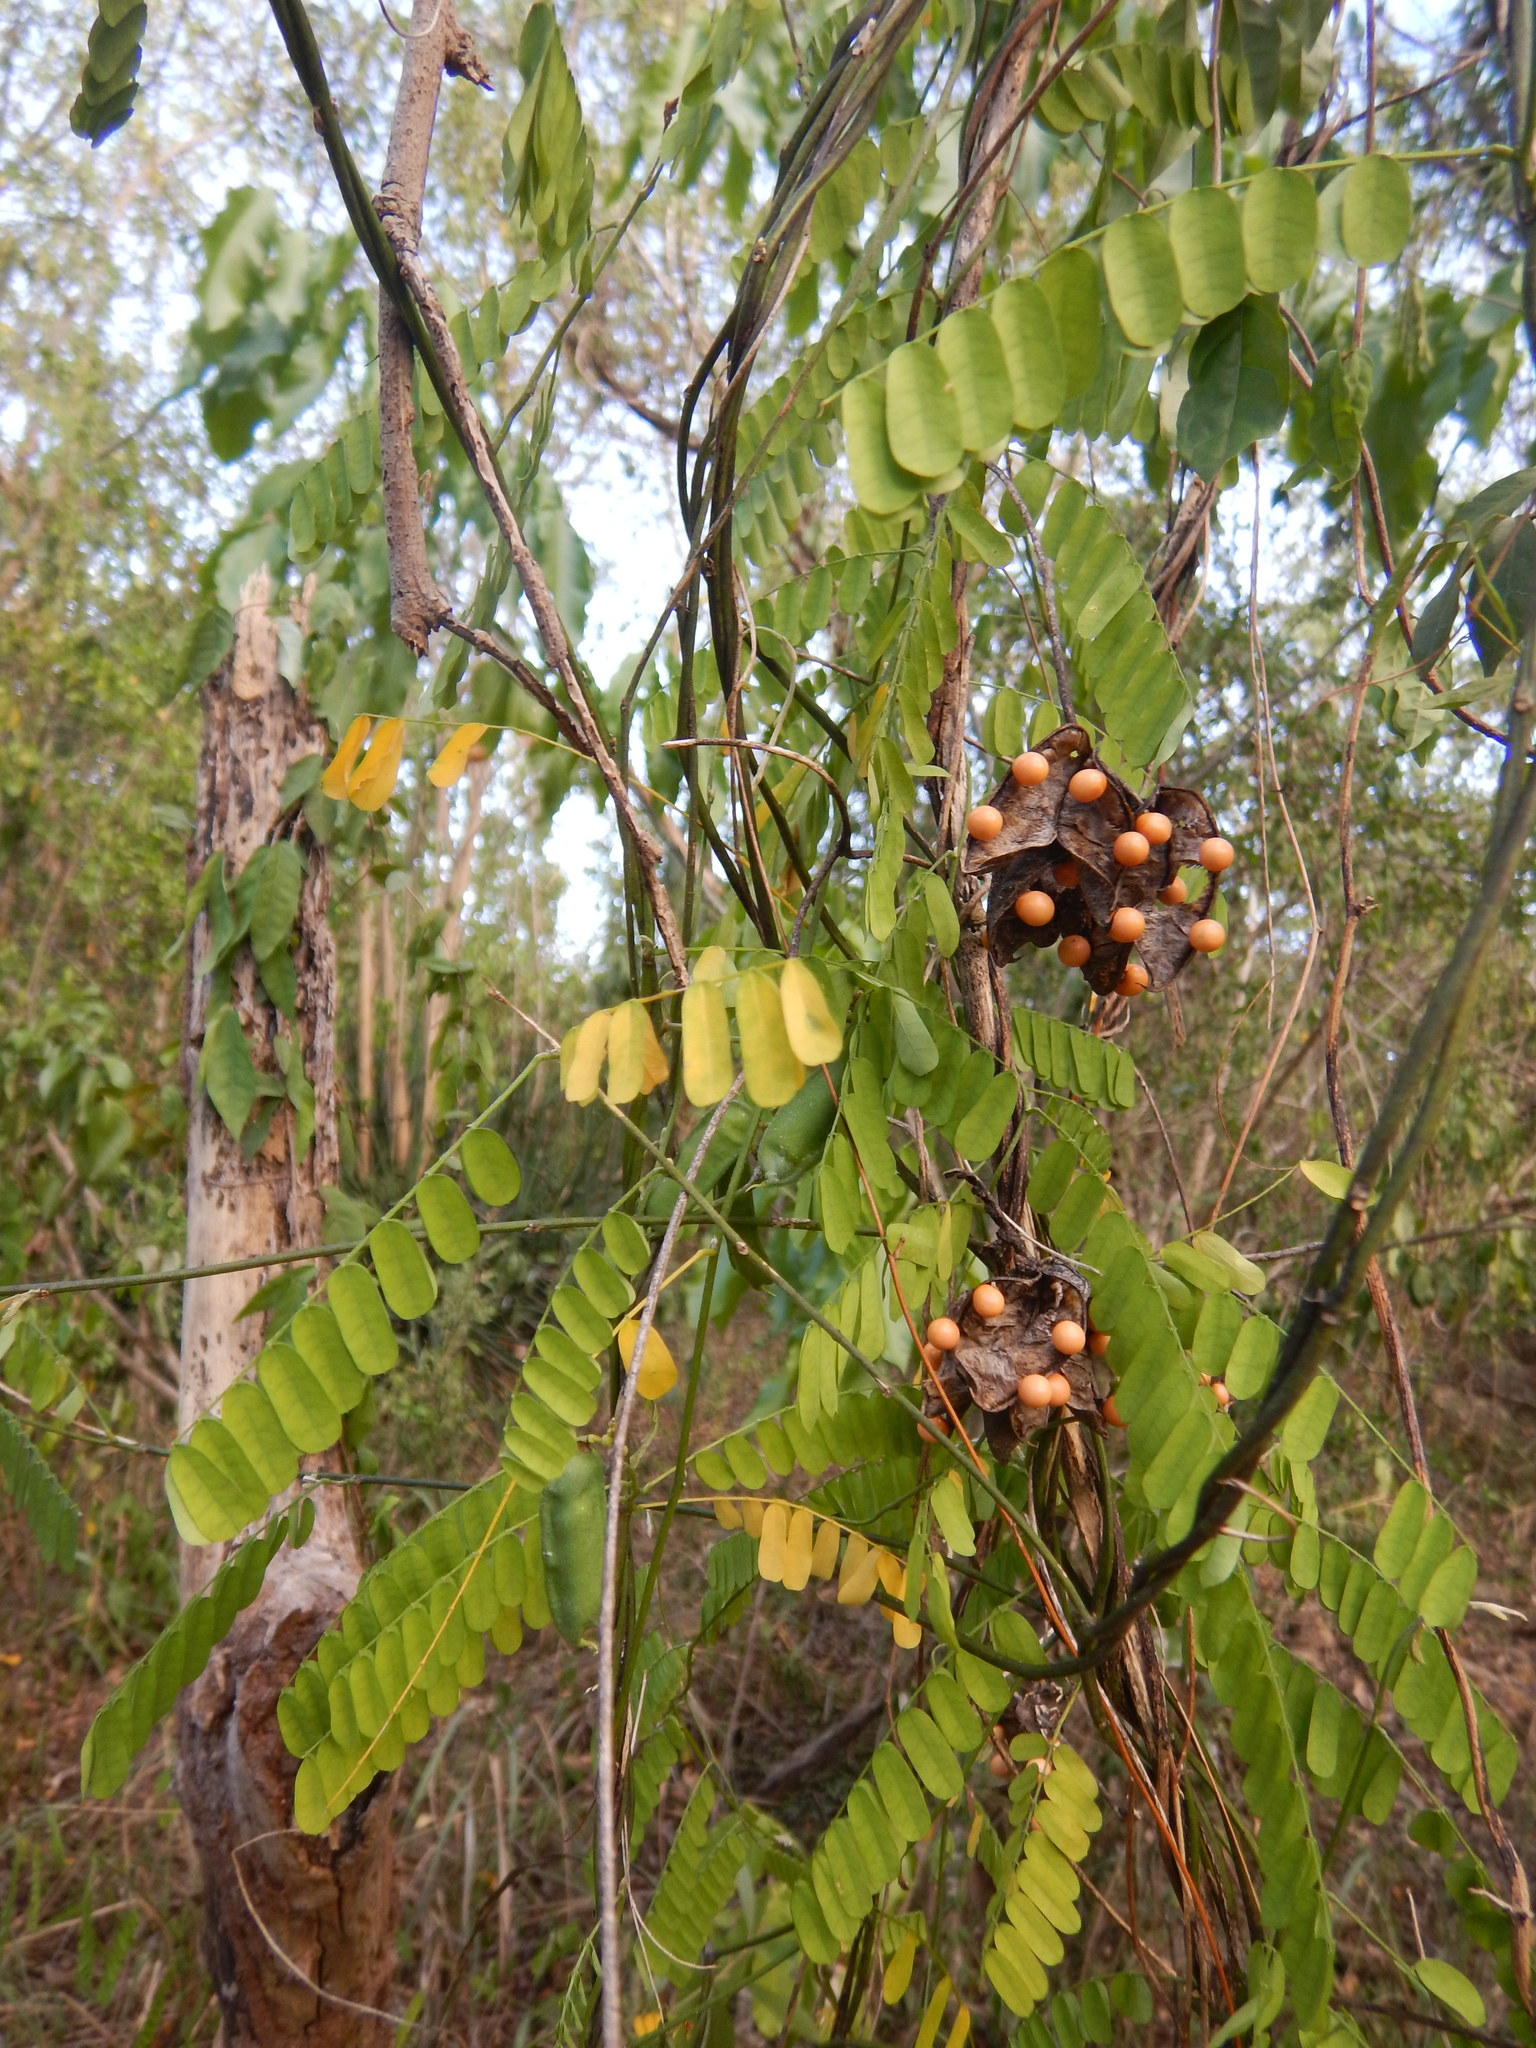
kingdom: Plantae
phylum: Tracheophyta
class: Magnoliopsida
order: Fabales
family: Fabaceae
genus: Abrus
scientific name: Abrus precatorius
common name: Rosarypea
